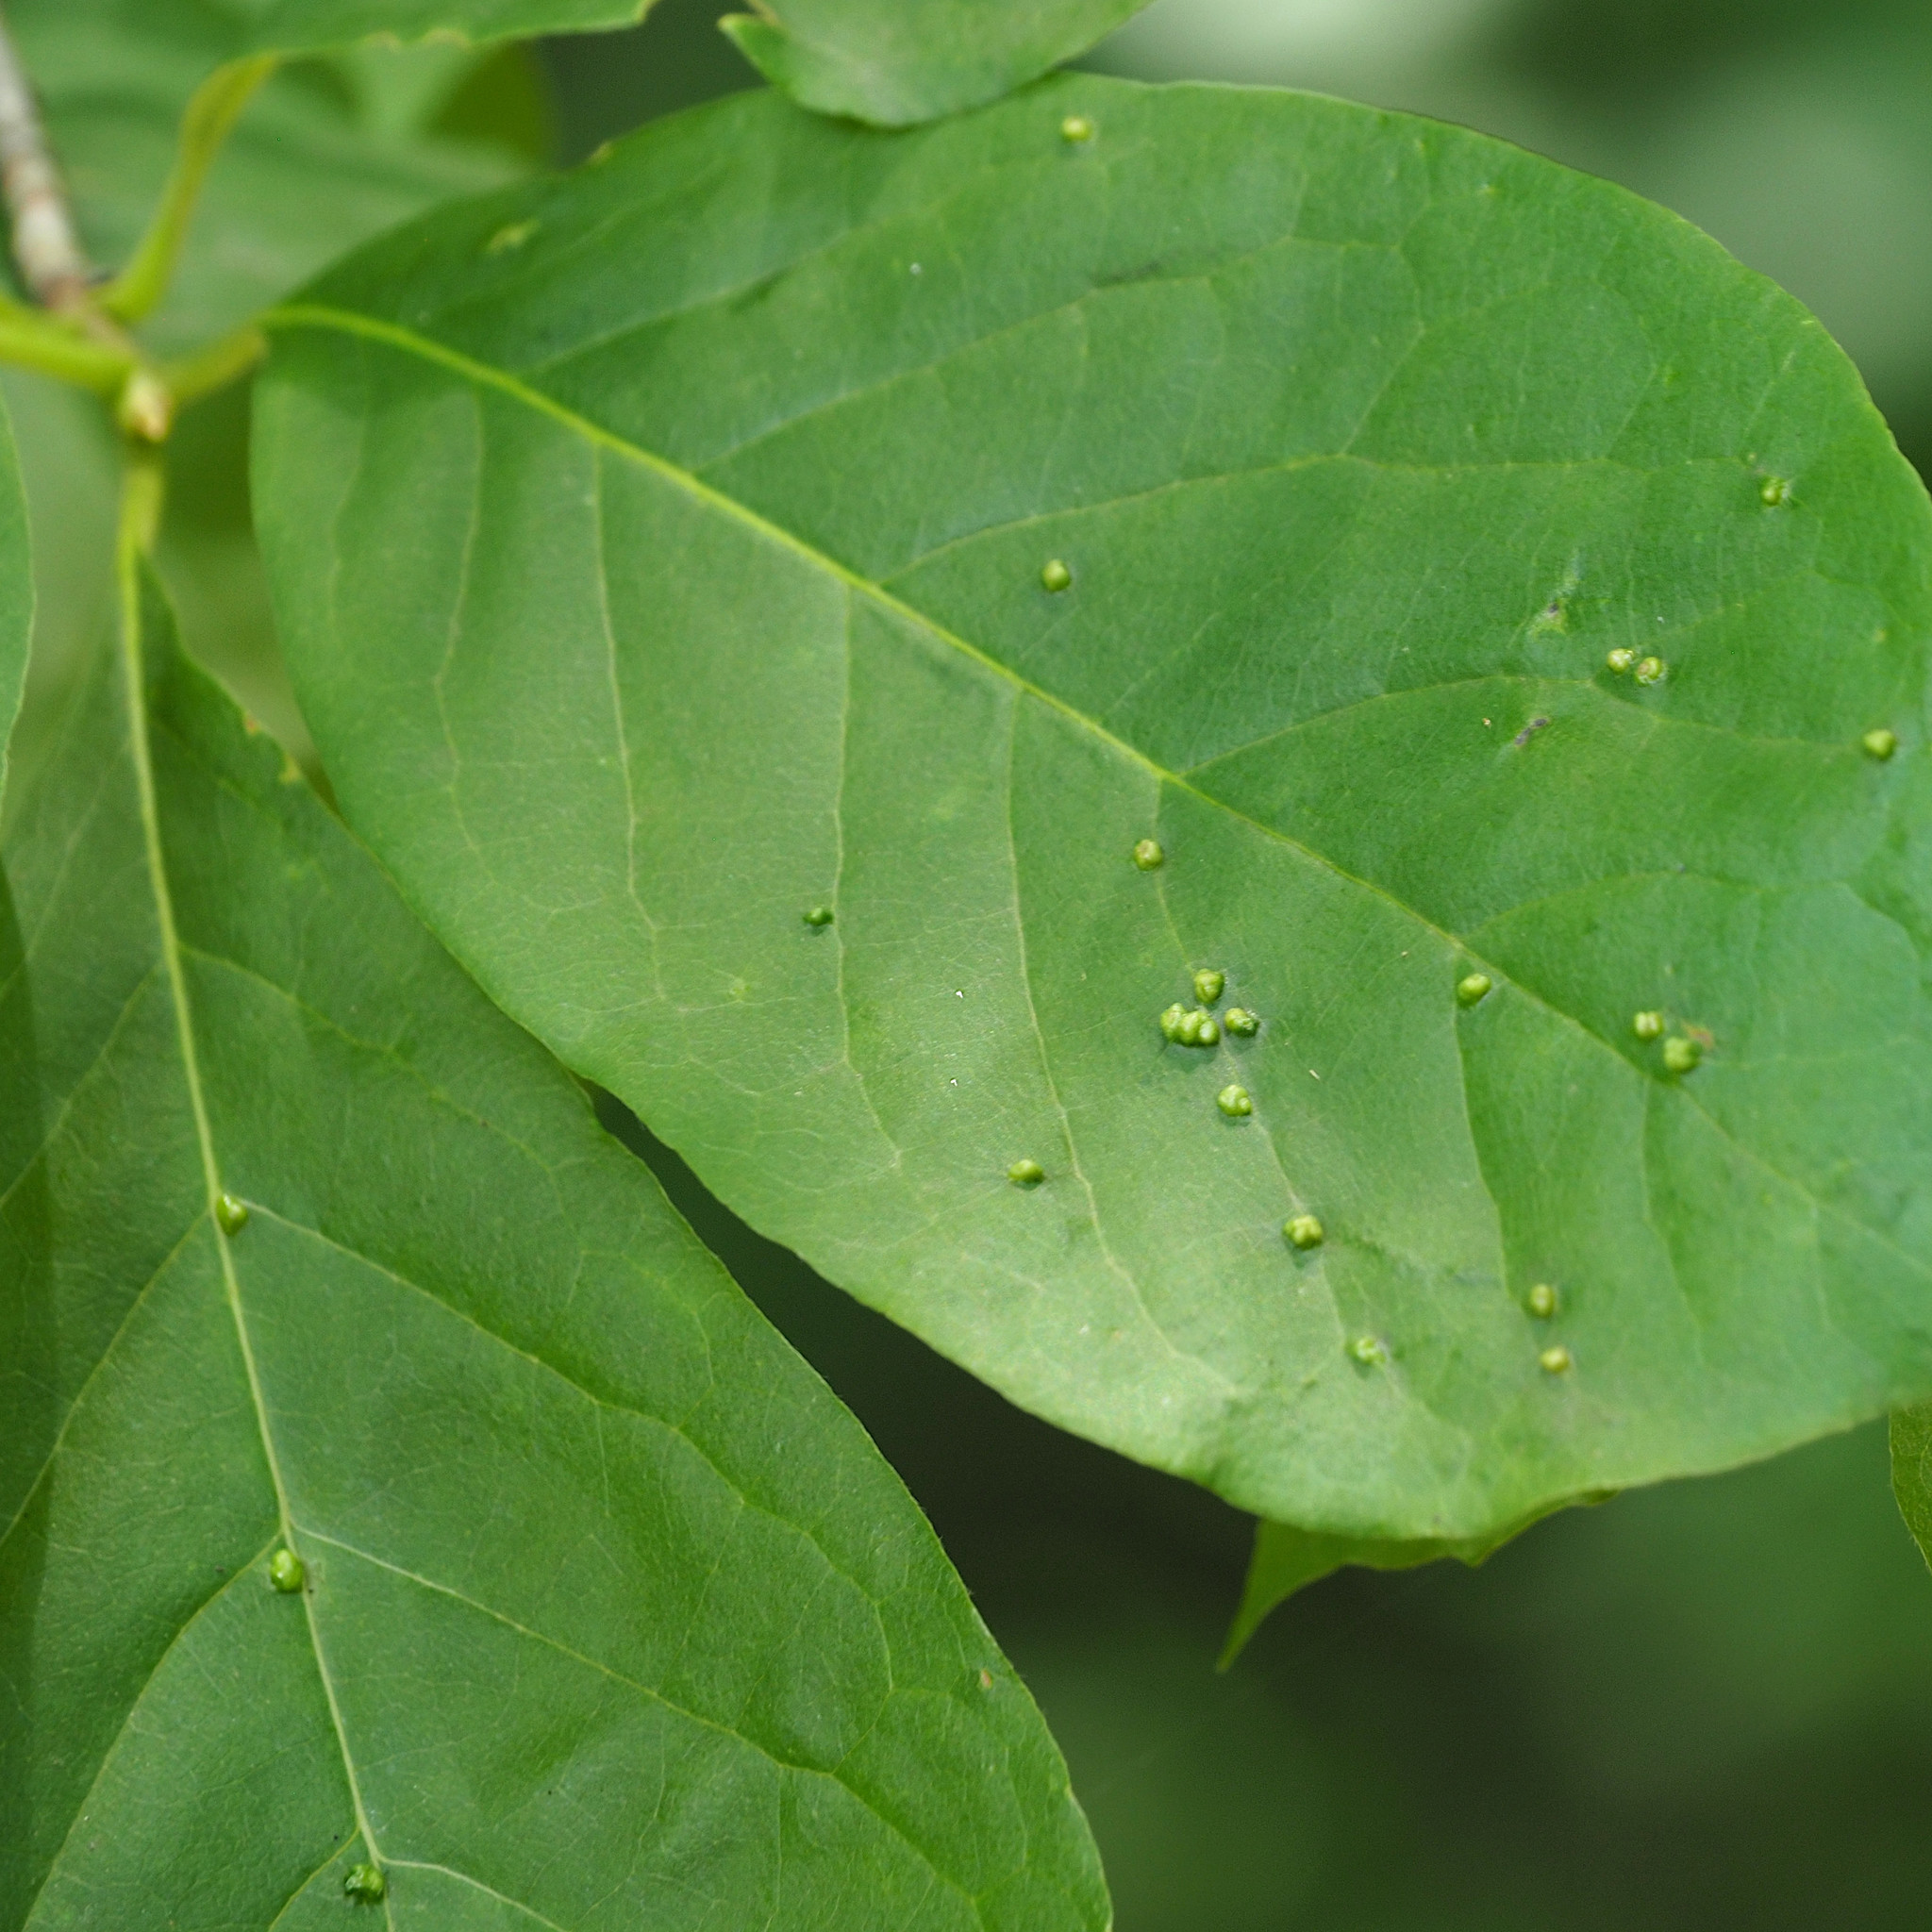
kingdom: Animalia
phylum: Arthropoda
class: Arachnida
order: Trombidiformes
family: Eriophyidae
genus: Aceria
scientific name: Aceria
